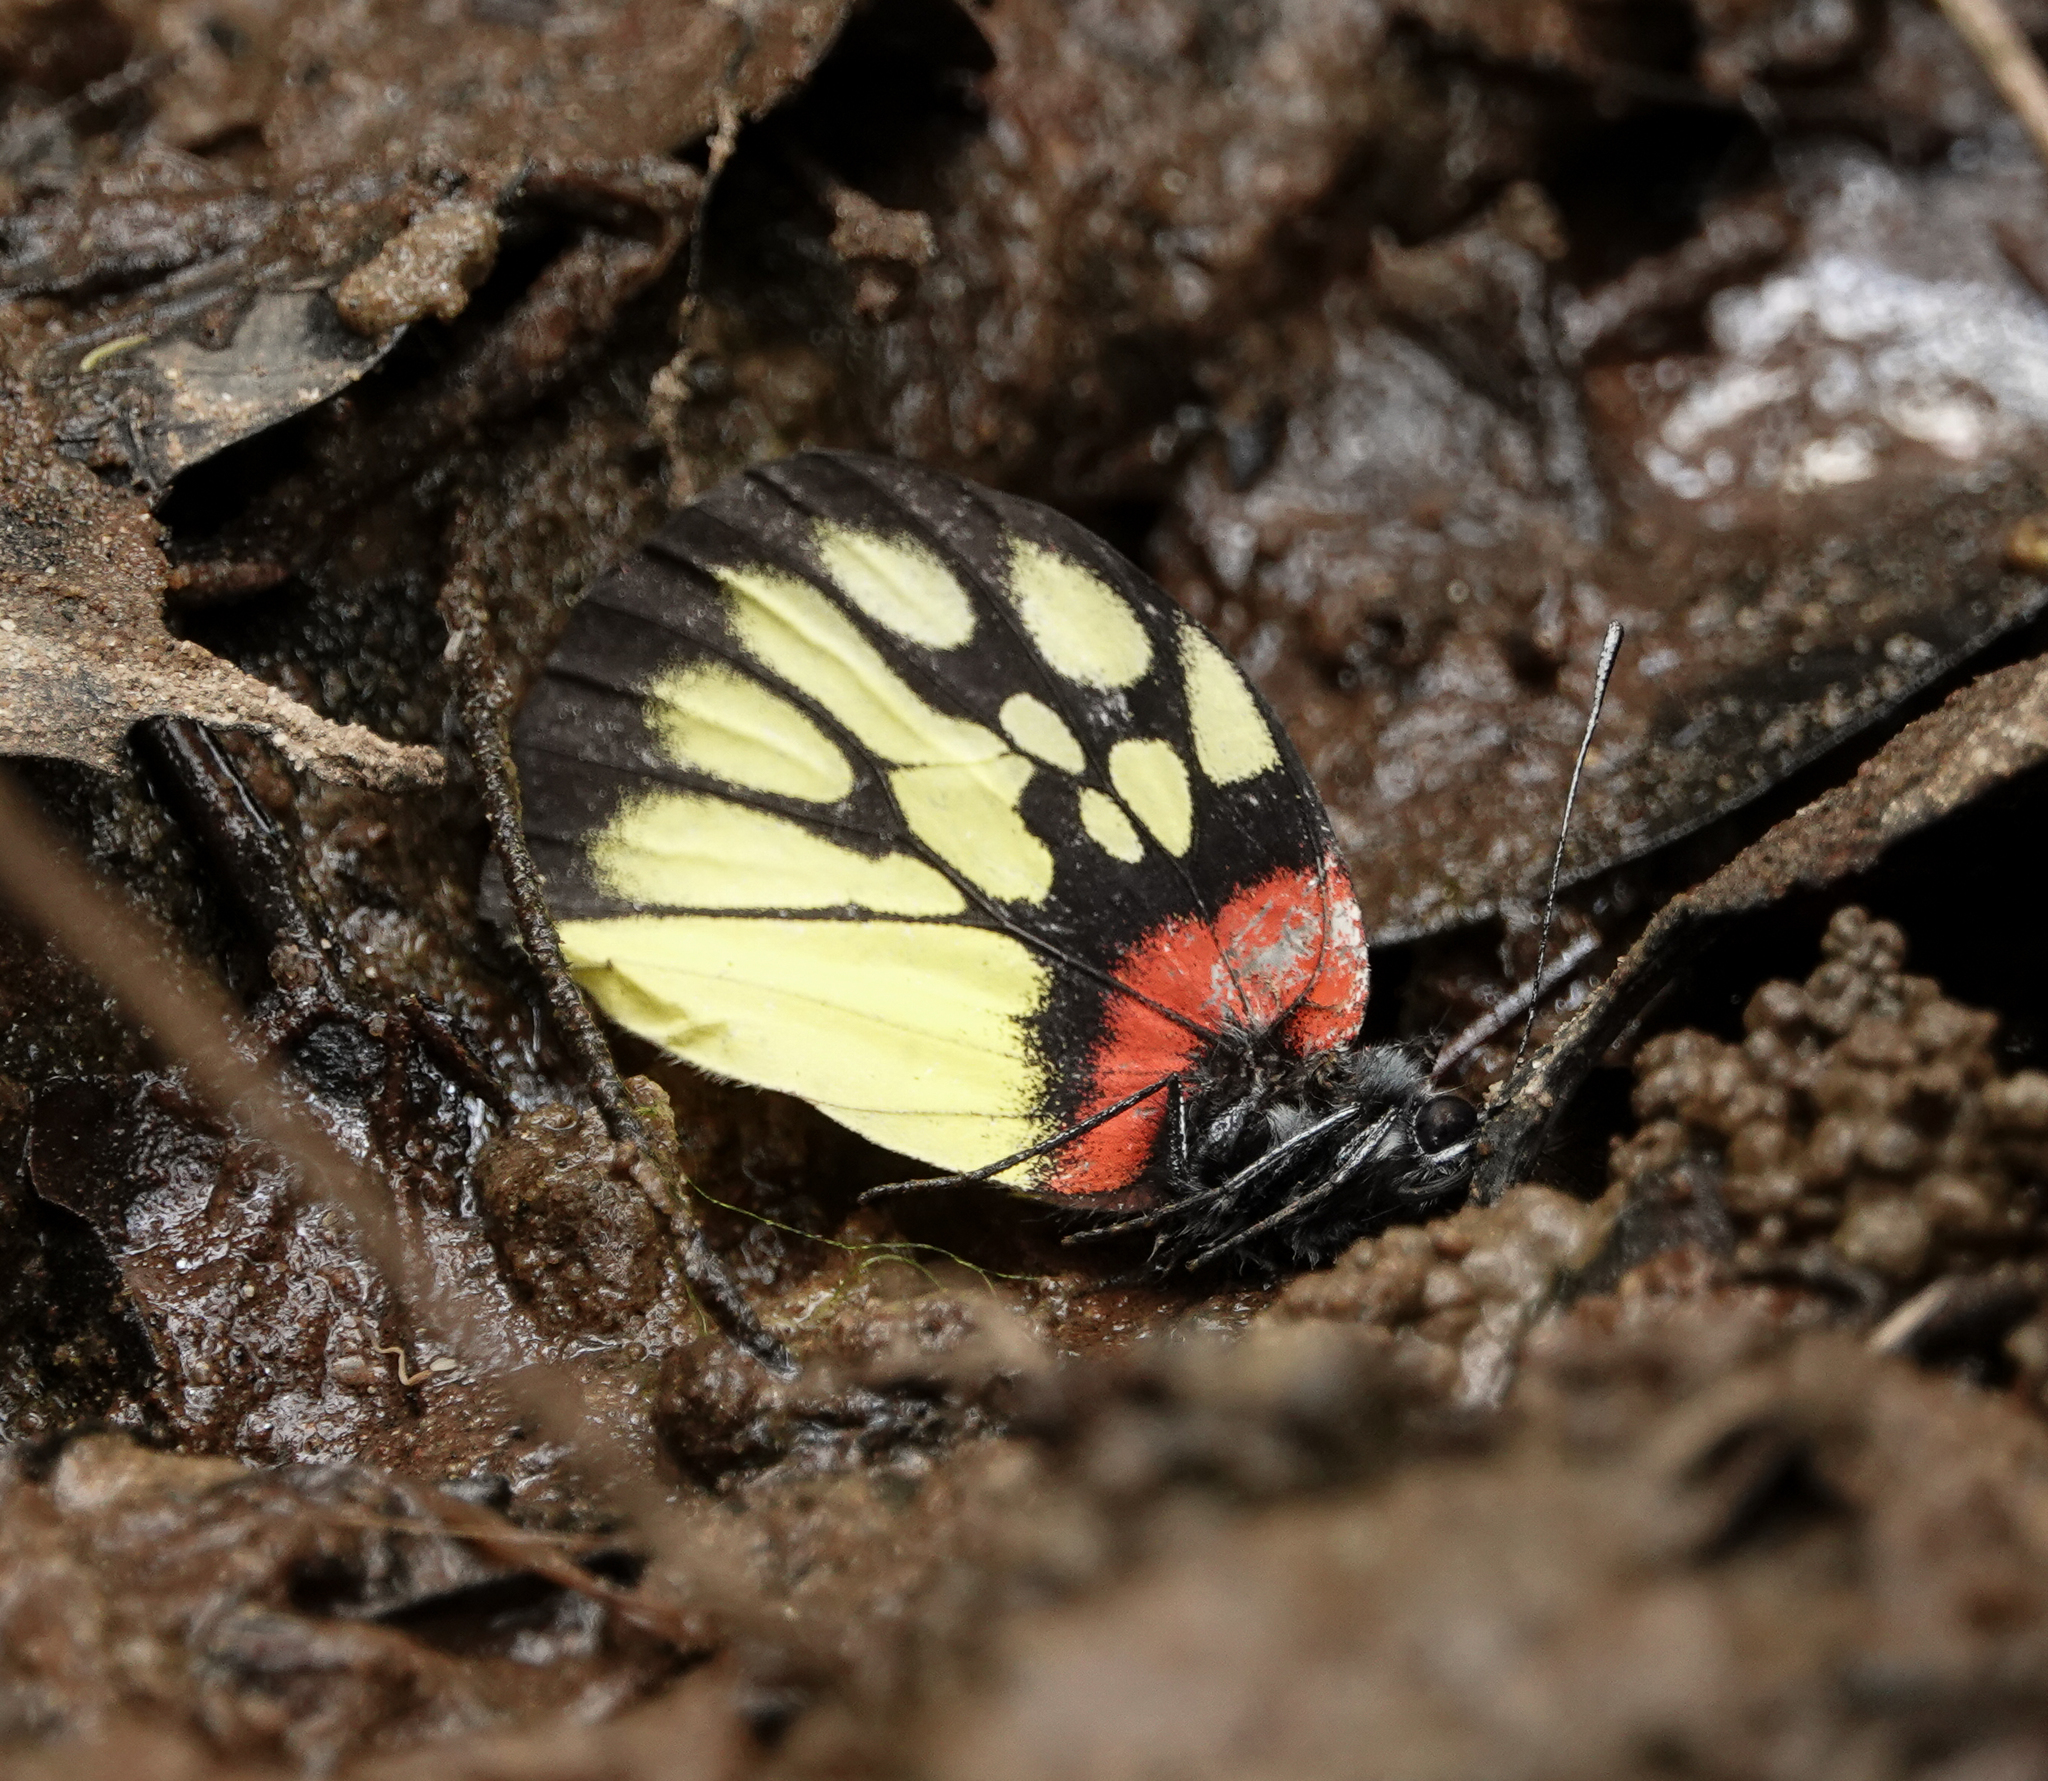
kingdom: Animalia
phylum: Arthropoda
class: Insecta
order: Lepidoptera
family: Pieridae
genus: Delias
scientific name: Delias pasithoe
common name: Red-base jezebel
